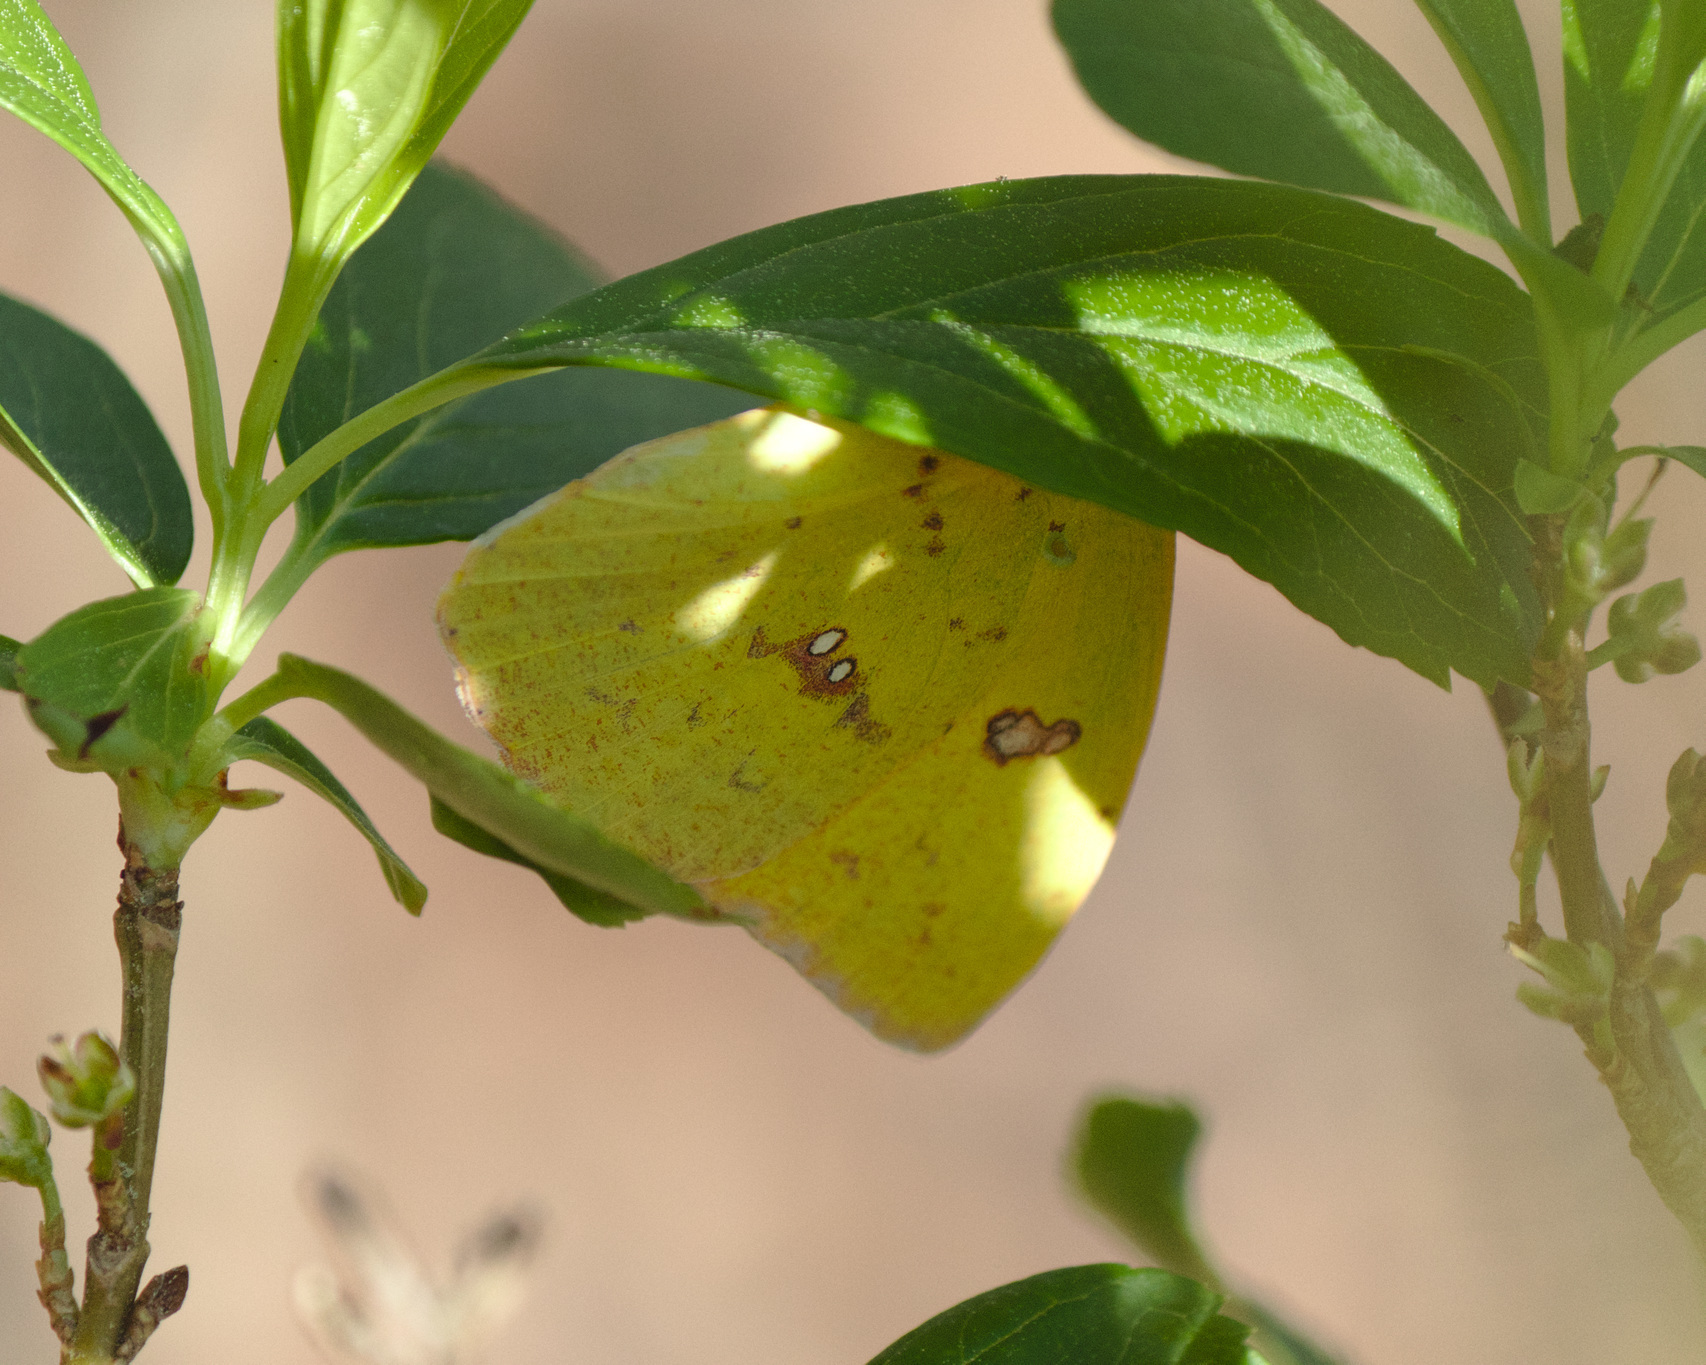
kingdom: Animalia
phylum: Arthropoda
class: Insecta
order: Lepidoptera
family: Pieridae
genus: Phoebis
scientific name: Phoebis sennae
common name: Cloudless sulphur
